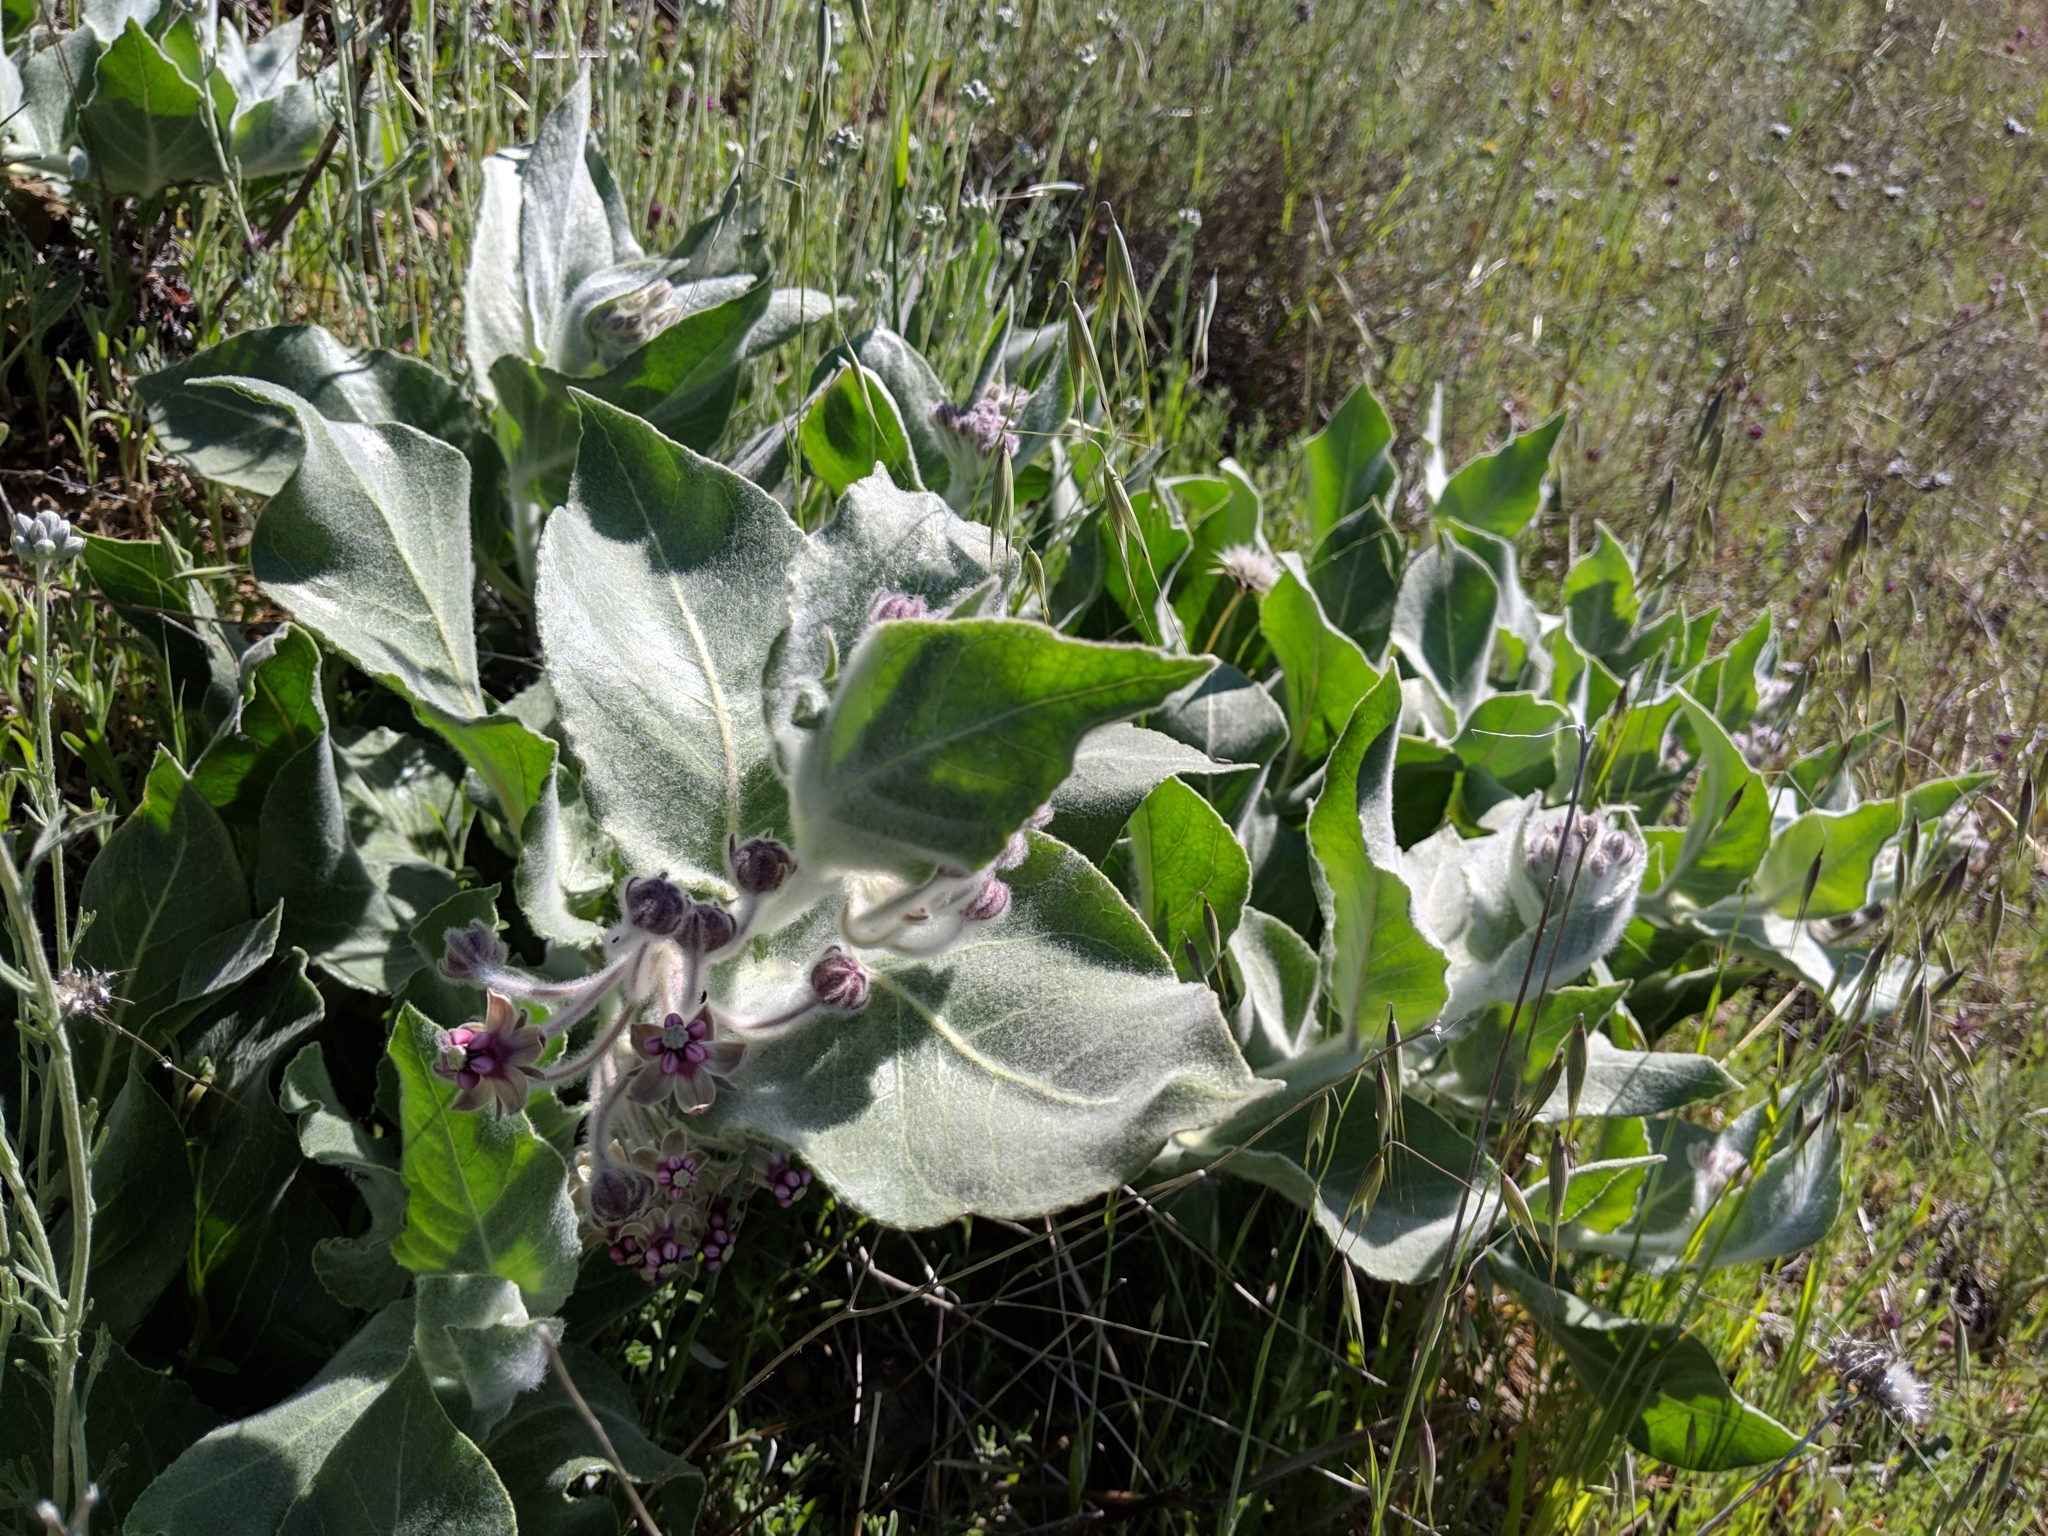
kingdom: Plantae
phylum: Tracheophyta
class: Magnoliopsida
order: Gentianales
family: Apocynaceae
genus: Asclepias
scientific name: Asclepias californica
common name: California milkweed
